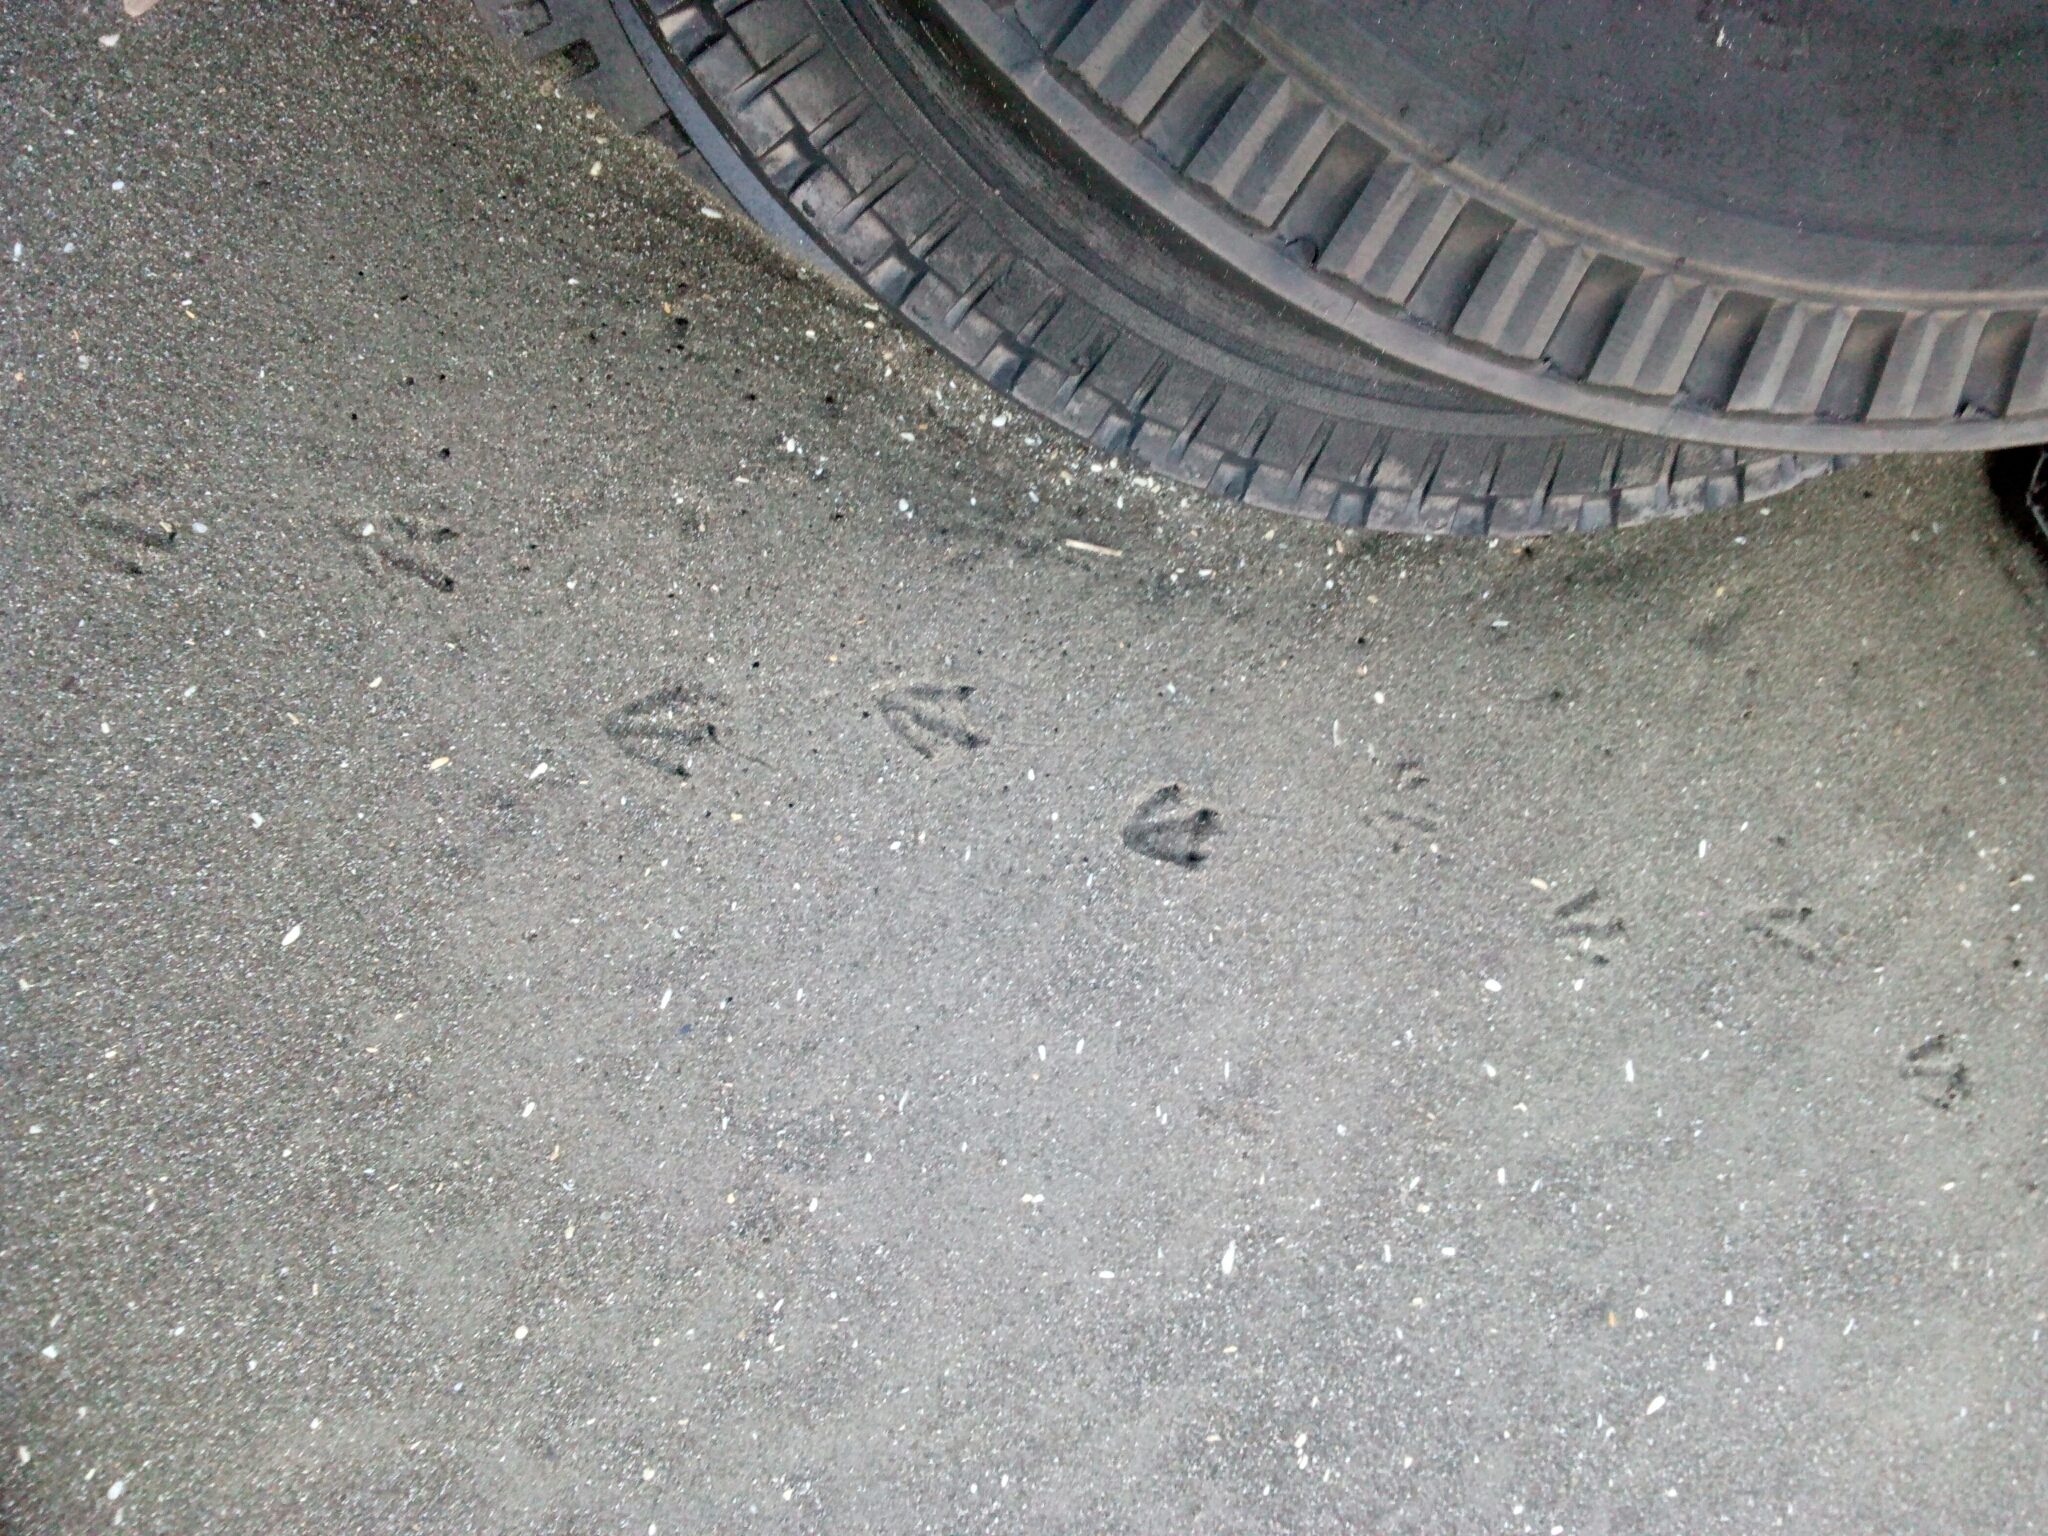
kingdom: Animalia
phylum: Chordata
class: Aves
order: Sphenisciformes
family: Spheniscidae
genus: Eudyptula
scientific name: Eudyptula minor
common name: Little penguin
